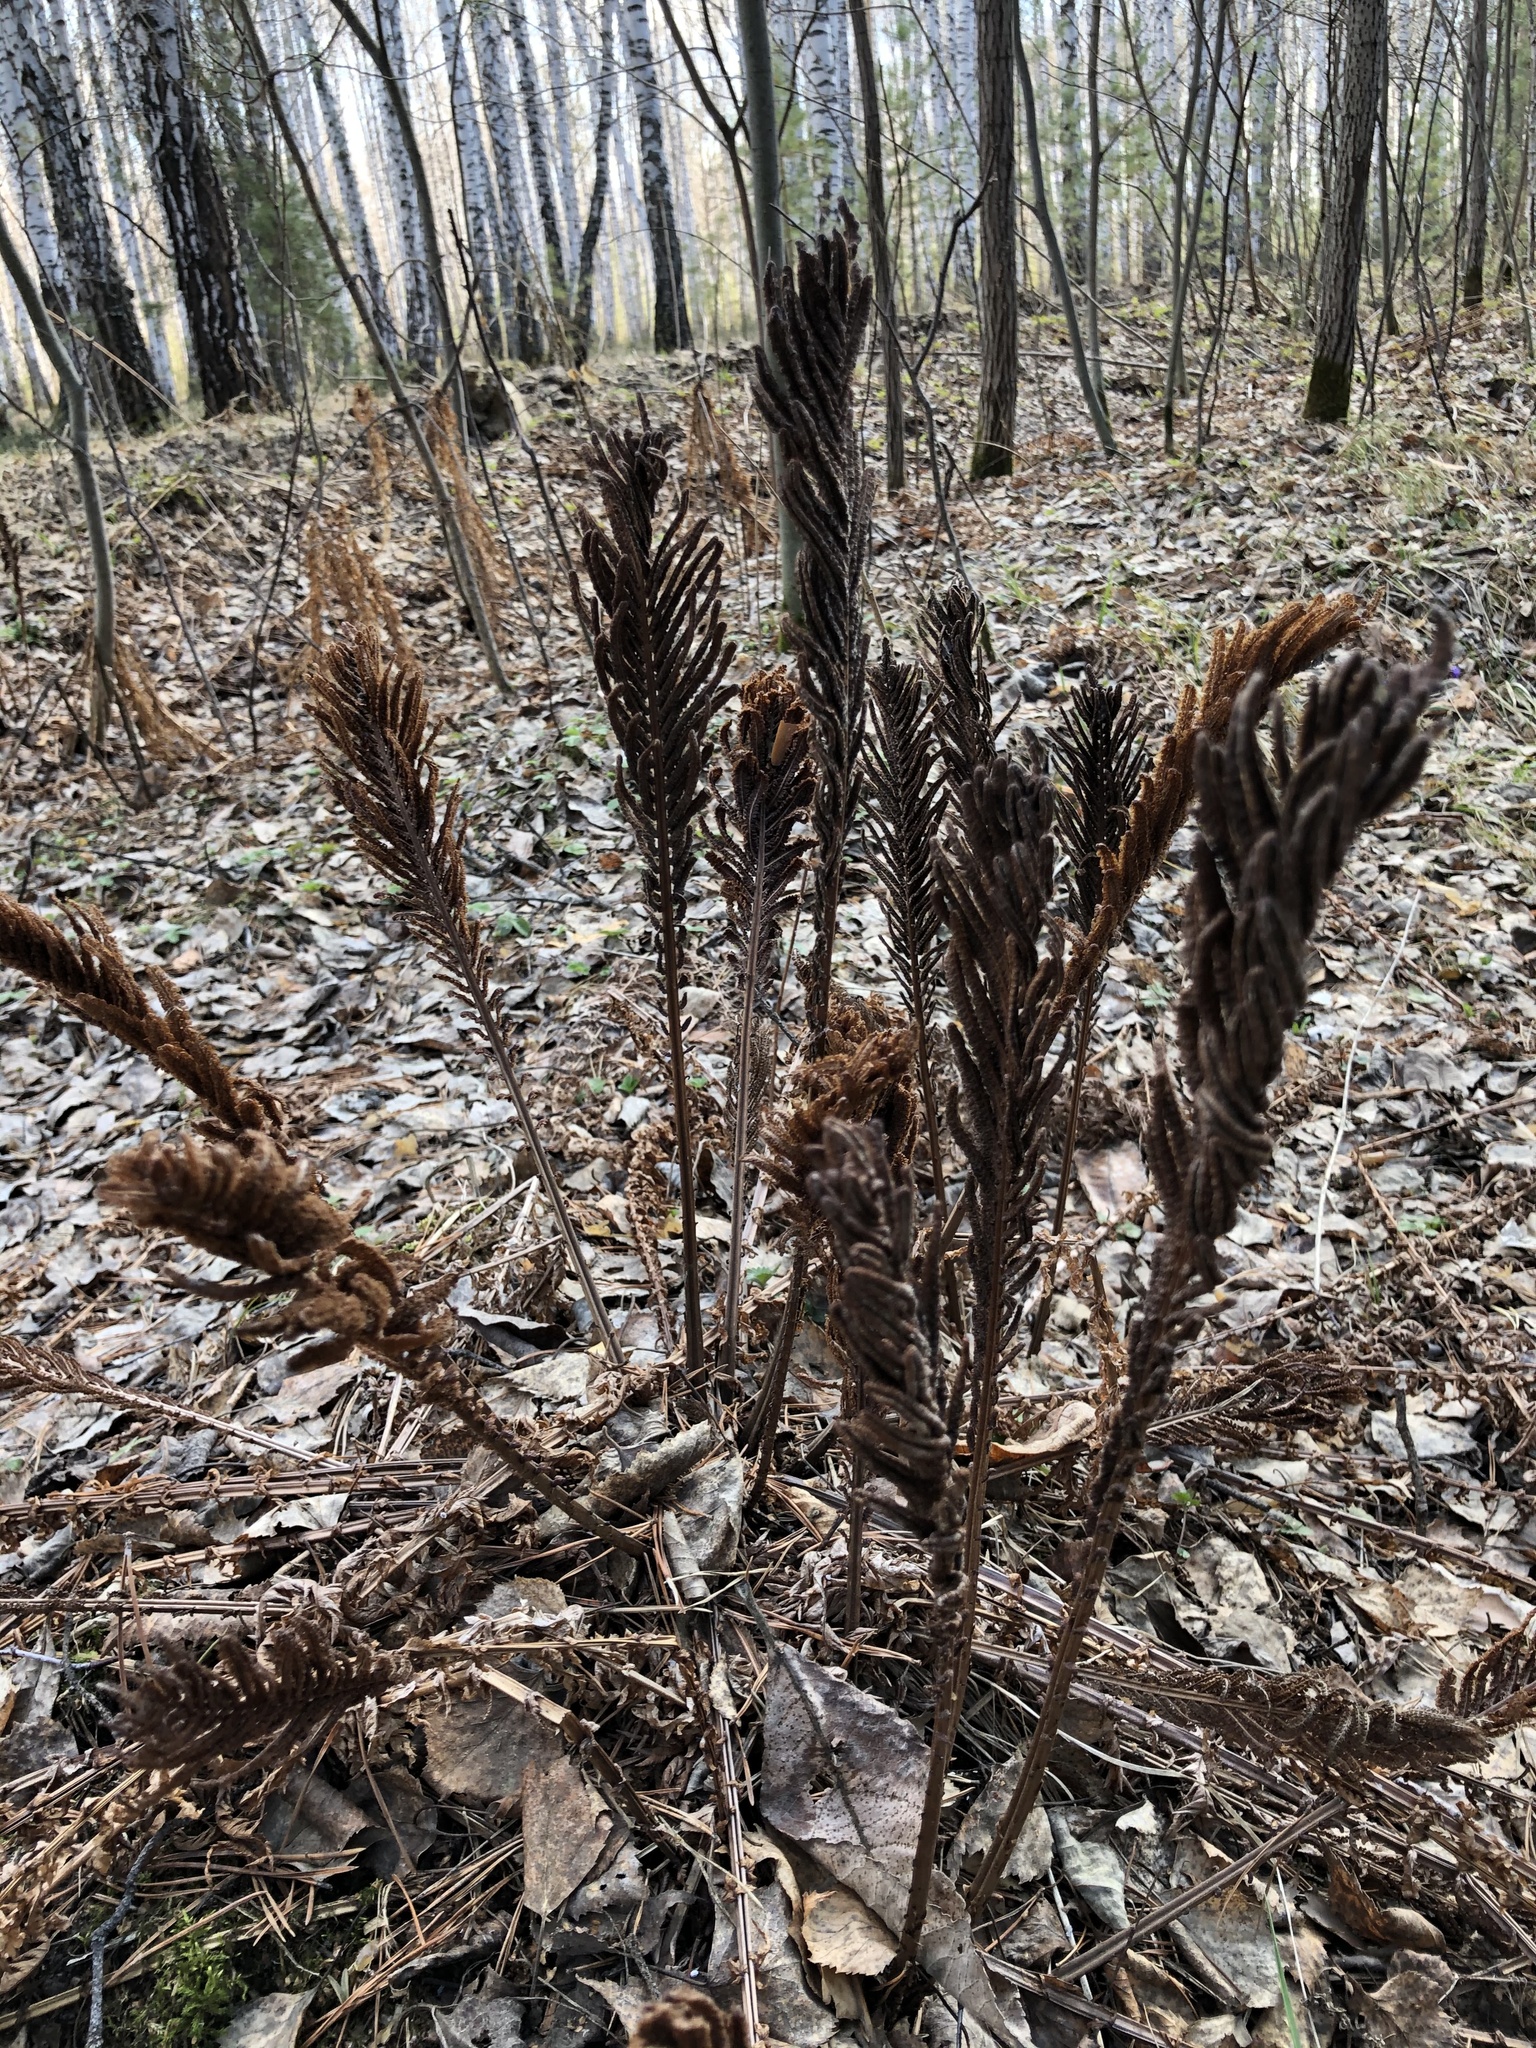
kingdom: Plantae
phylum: Tracheophyta
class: Polypodiopsida
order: Polypodiales
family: Onocleaceae
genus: Matteuccia
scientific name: Matteuccia struthiopteris
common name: Ostrich fern
